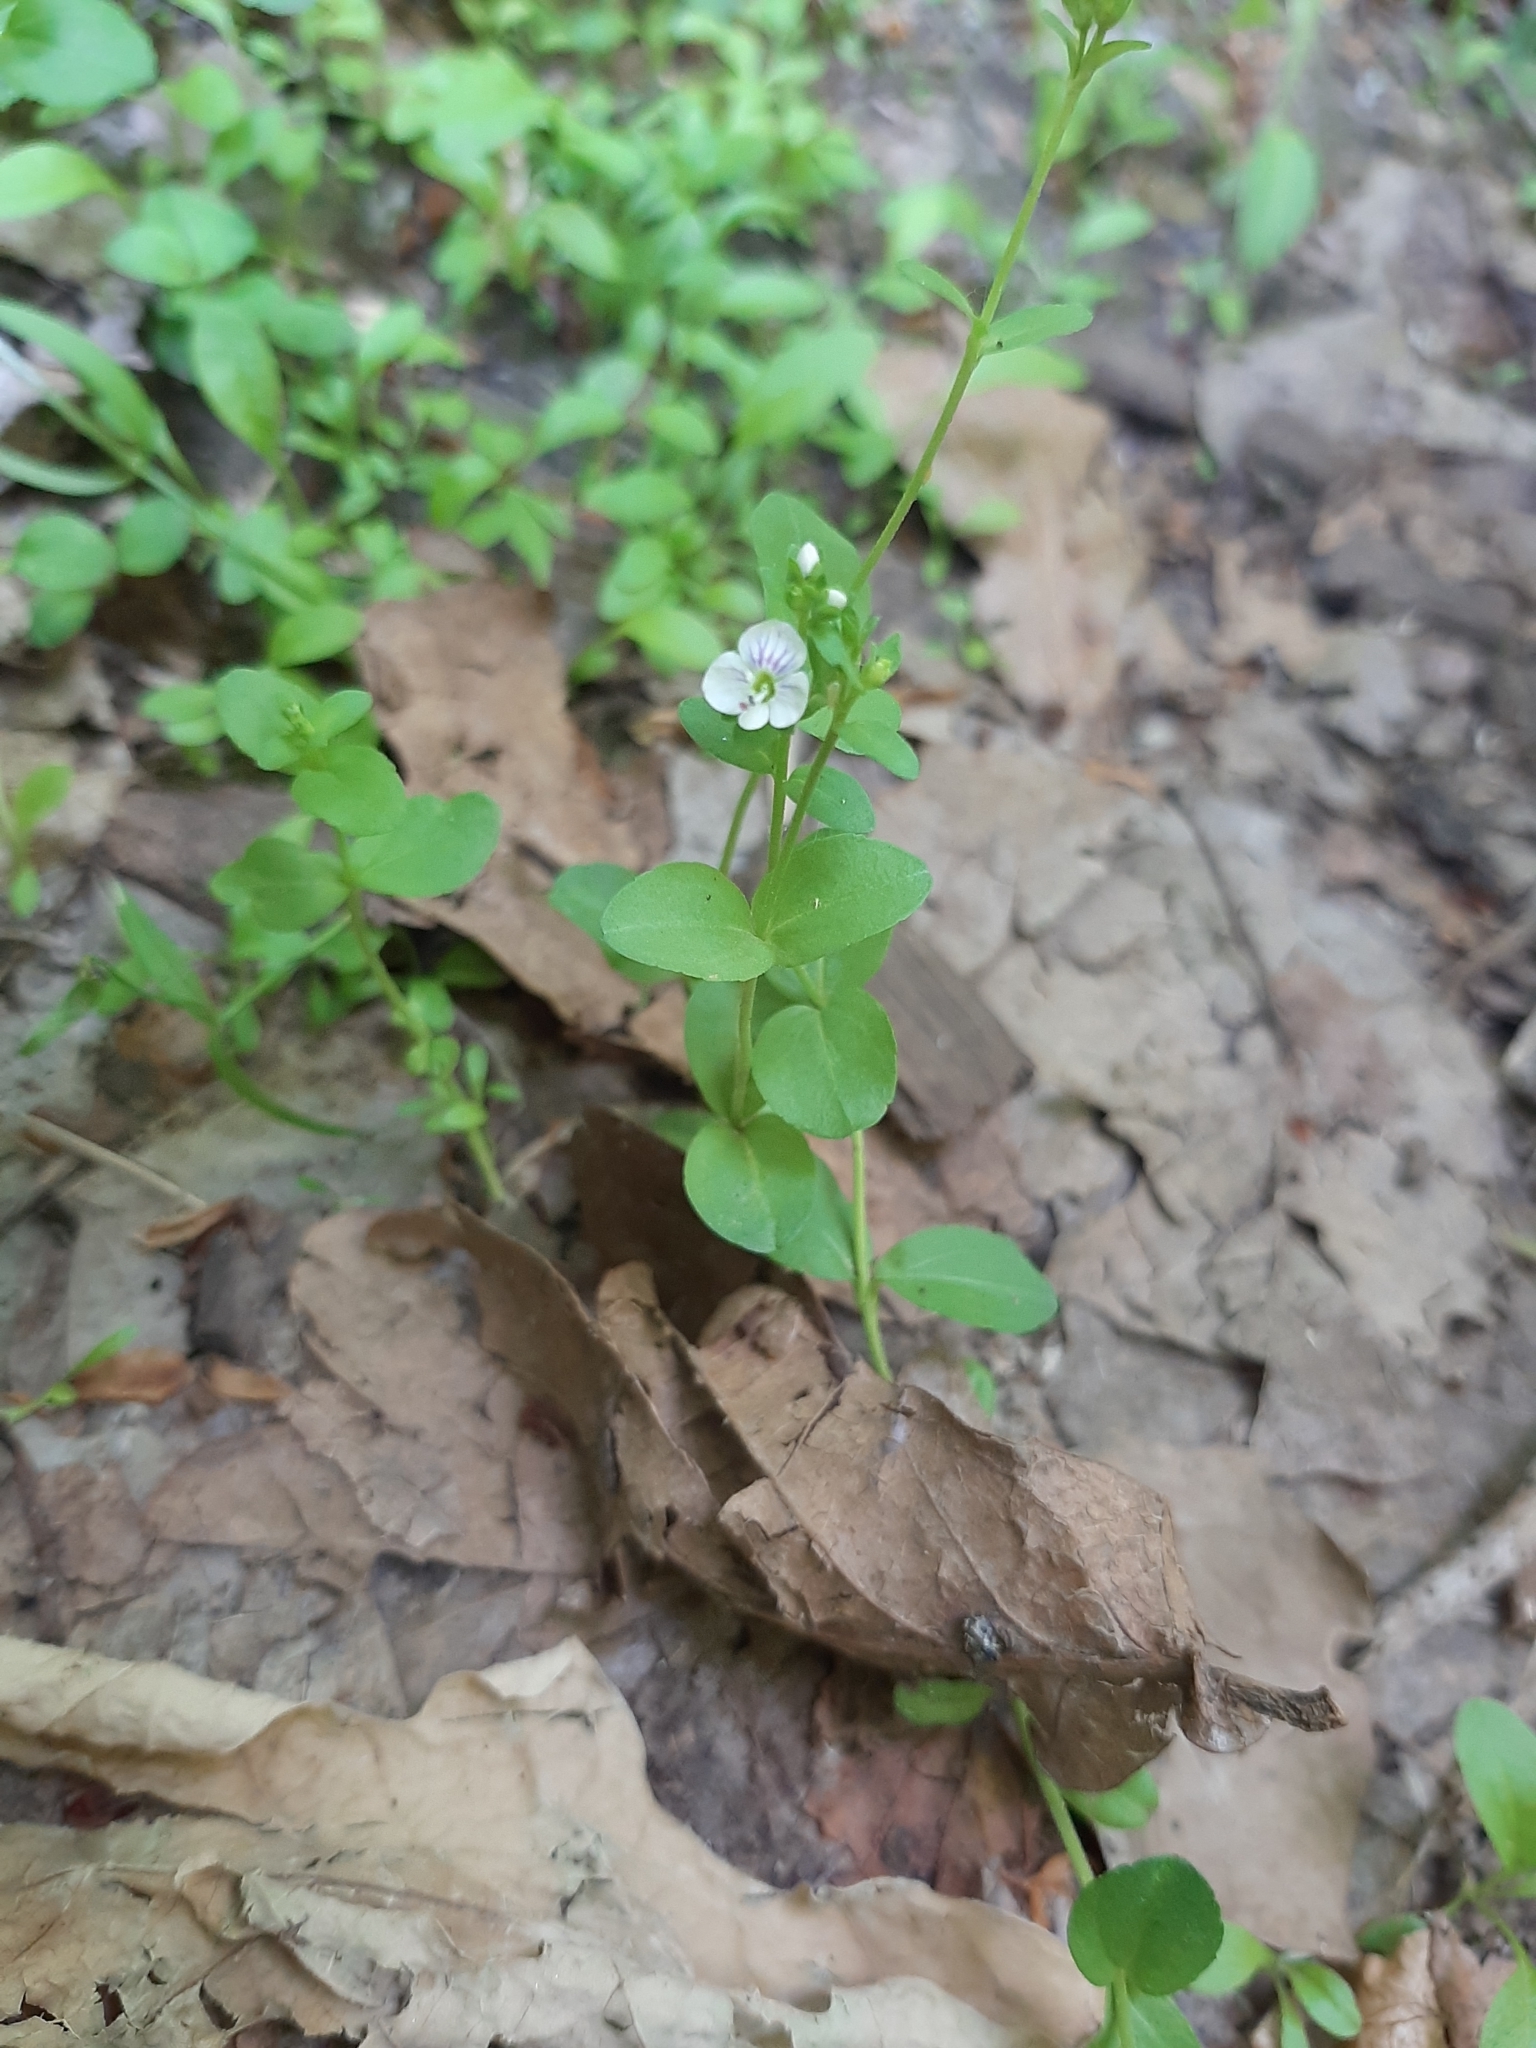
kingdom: Plantae
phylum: Tracheophyta
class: Magnoliopsida
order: Lamiales
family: Plantaginaceae
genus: Veronica
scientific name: Veronica serpyllifolia
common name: Thyme-leaved speedwell
